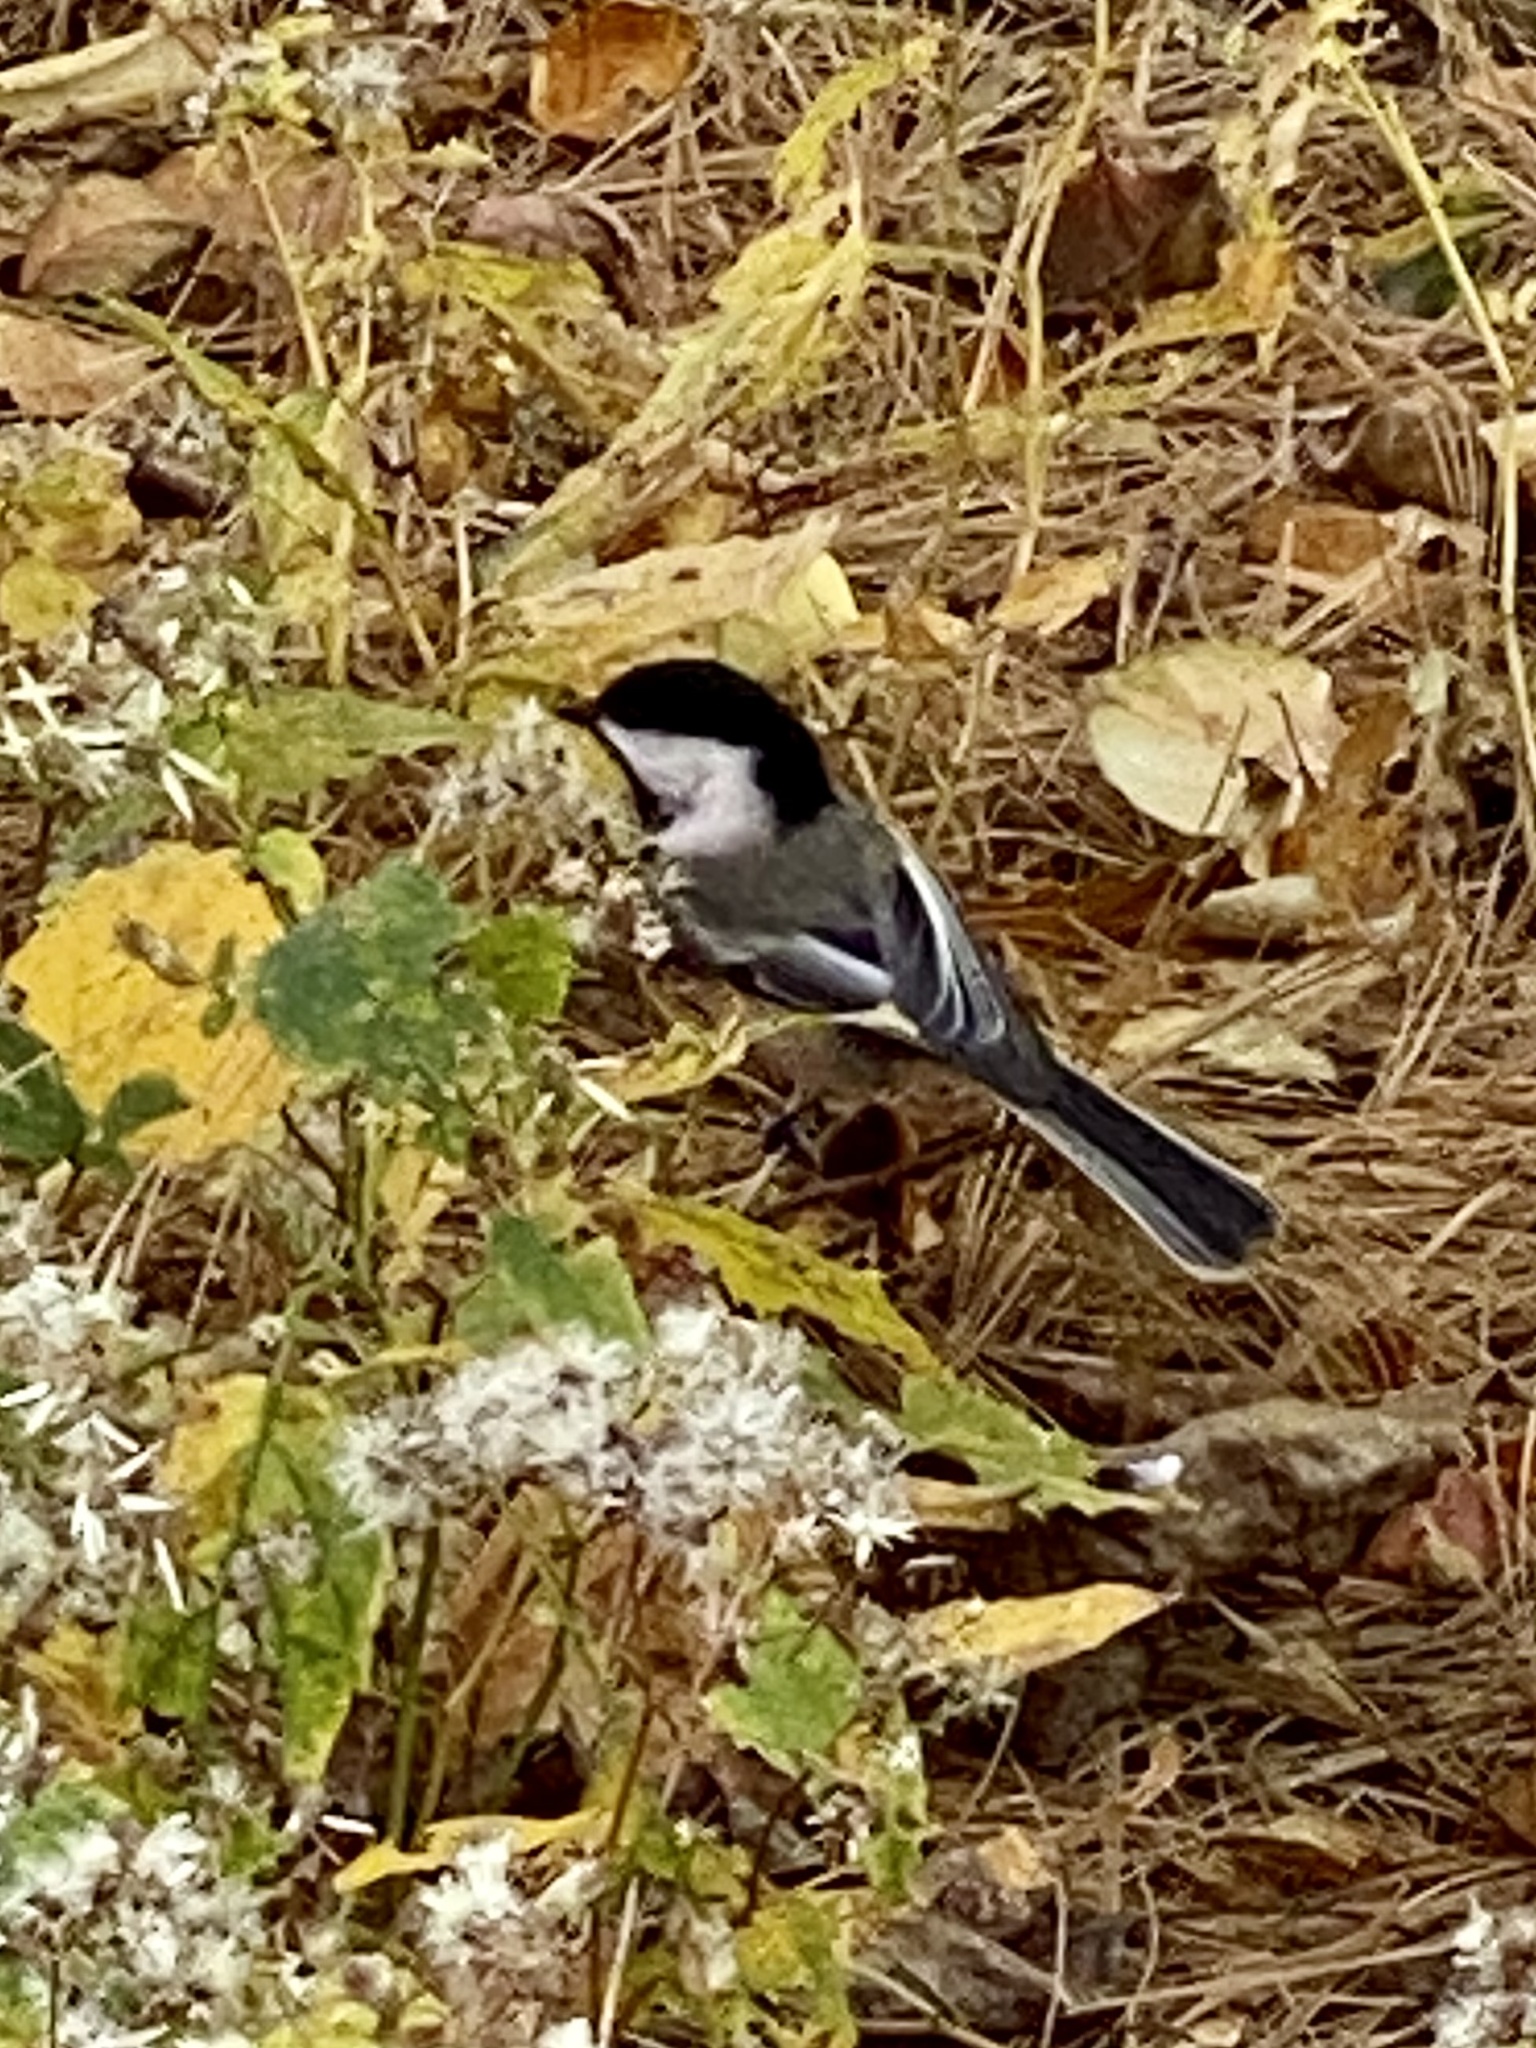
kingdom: Animalia
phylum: Chordata
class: Aves
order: Passeriformes
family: Paridae
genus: Poecile
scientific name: Poecile atricapillus
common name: Black-capped chickadee
